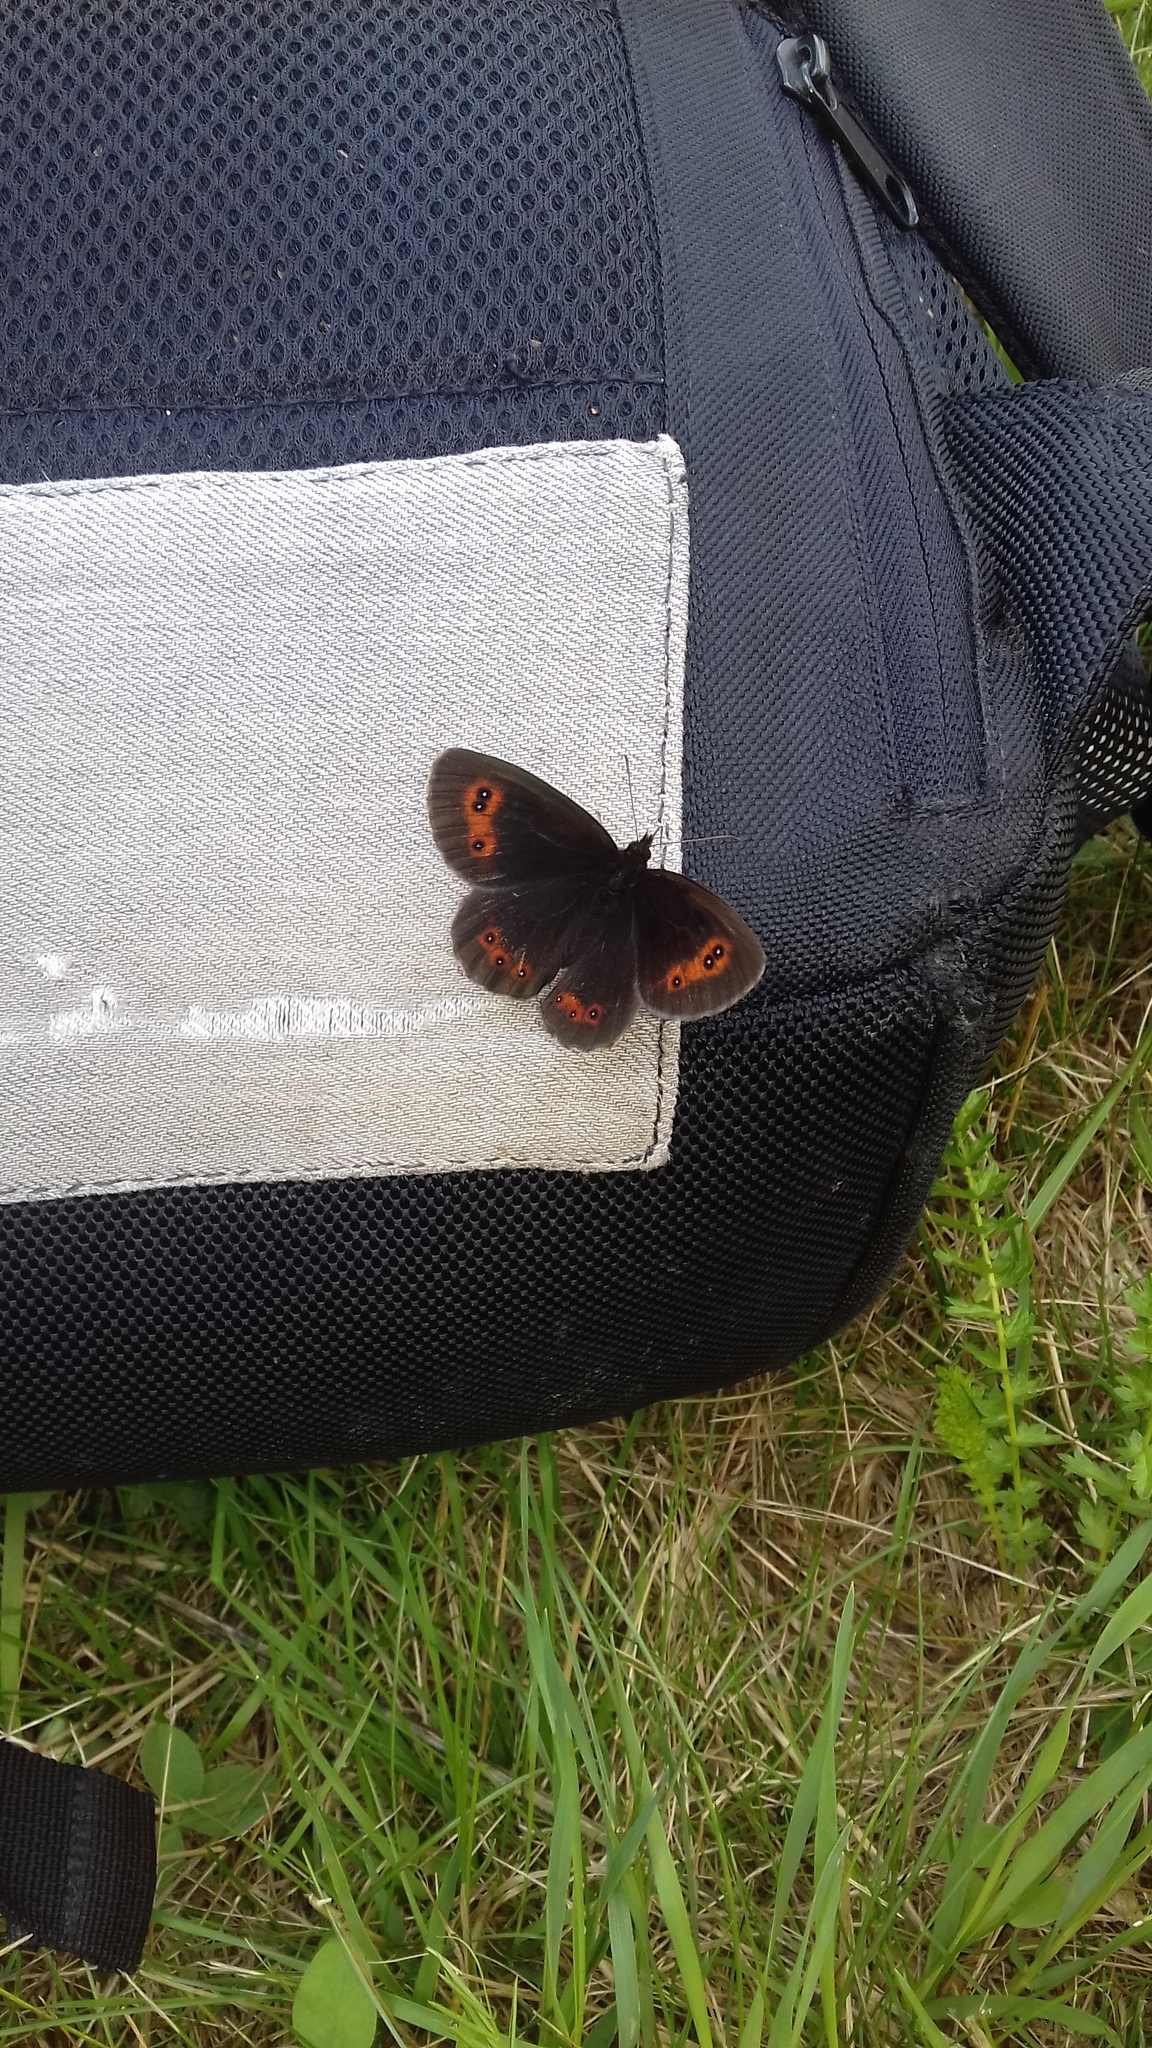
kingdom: Animalia
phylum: Arthropoda
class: Insecta
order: Lepidoptera
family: Nymphalidae
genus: Erebia
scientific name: Erebia aethiops
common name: Scotch argus
